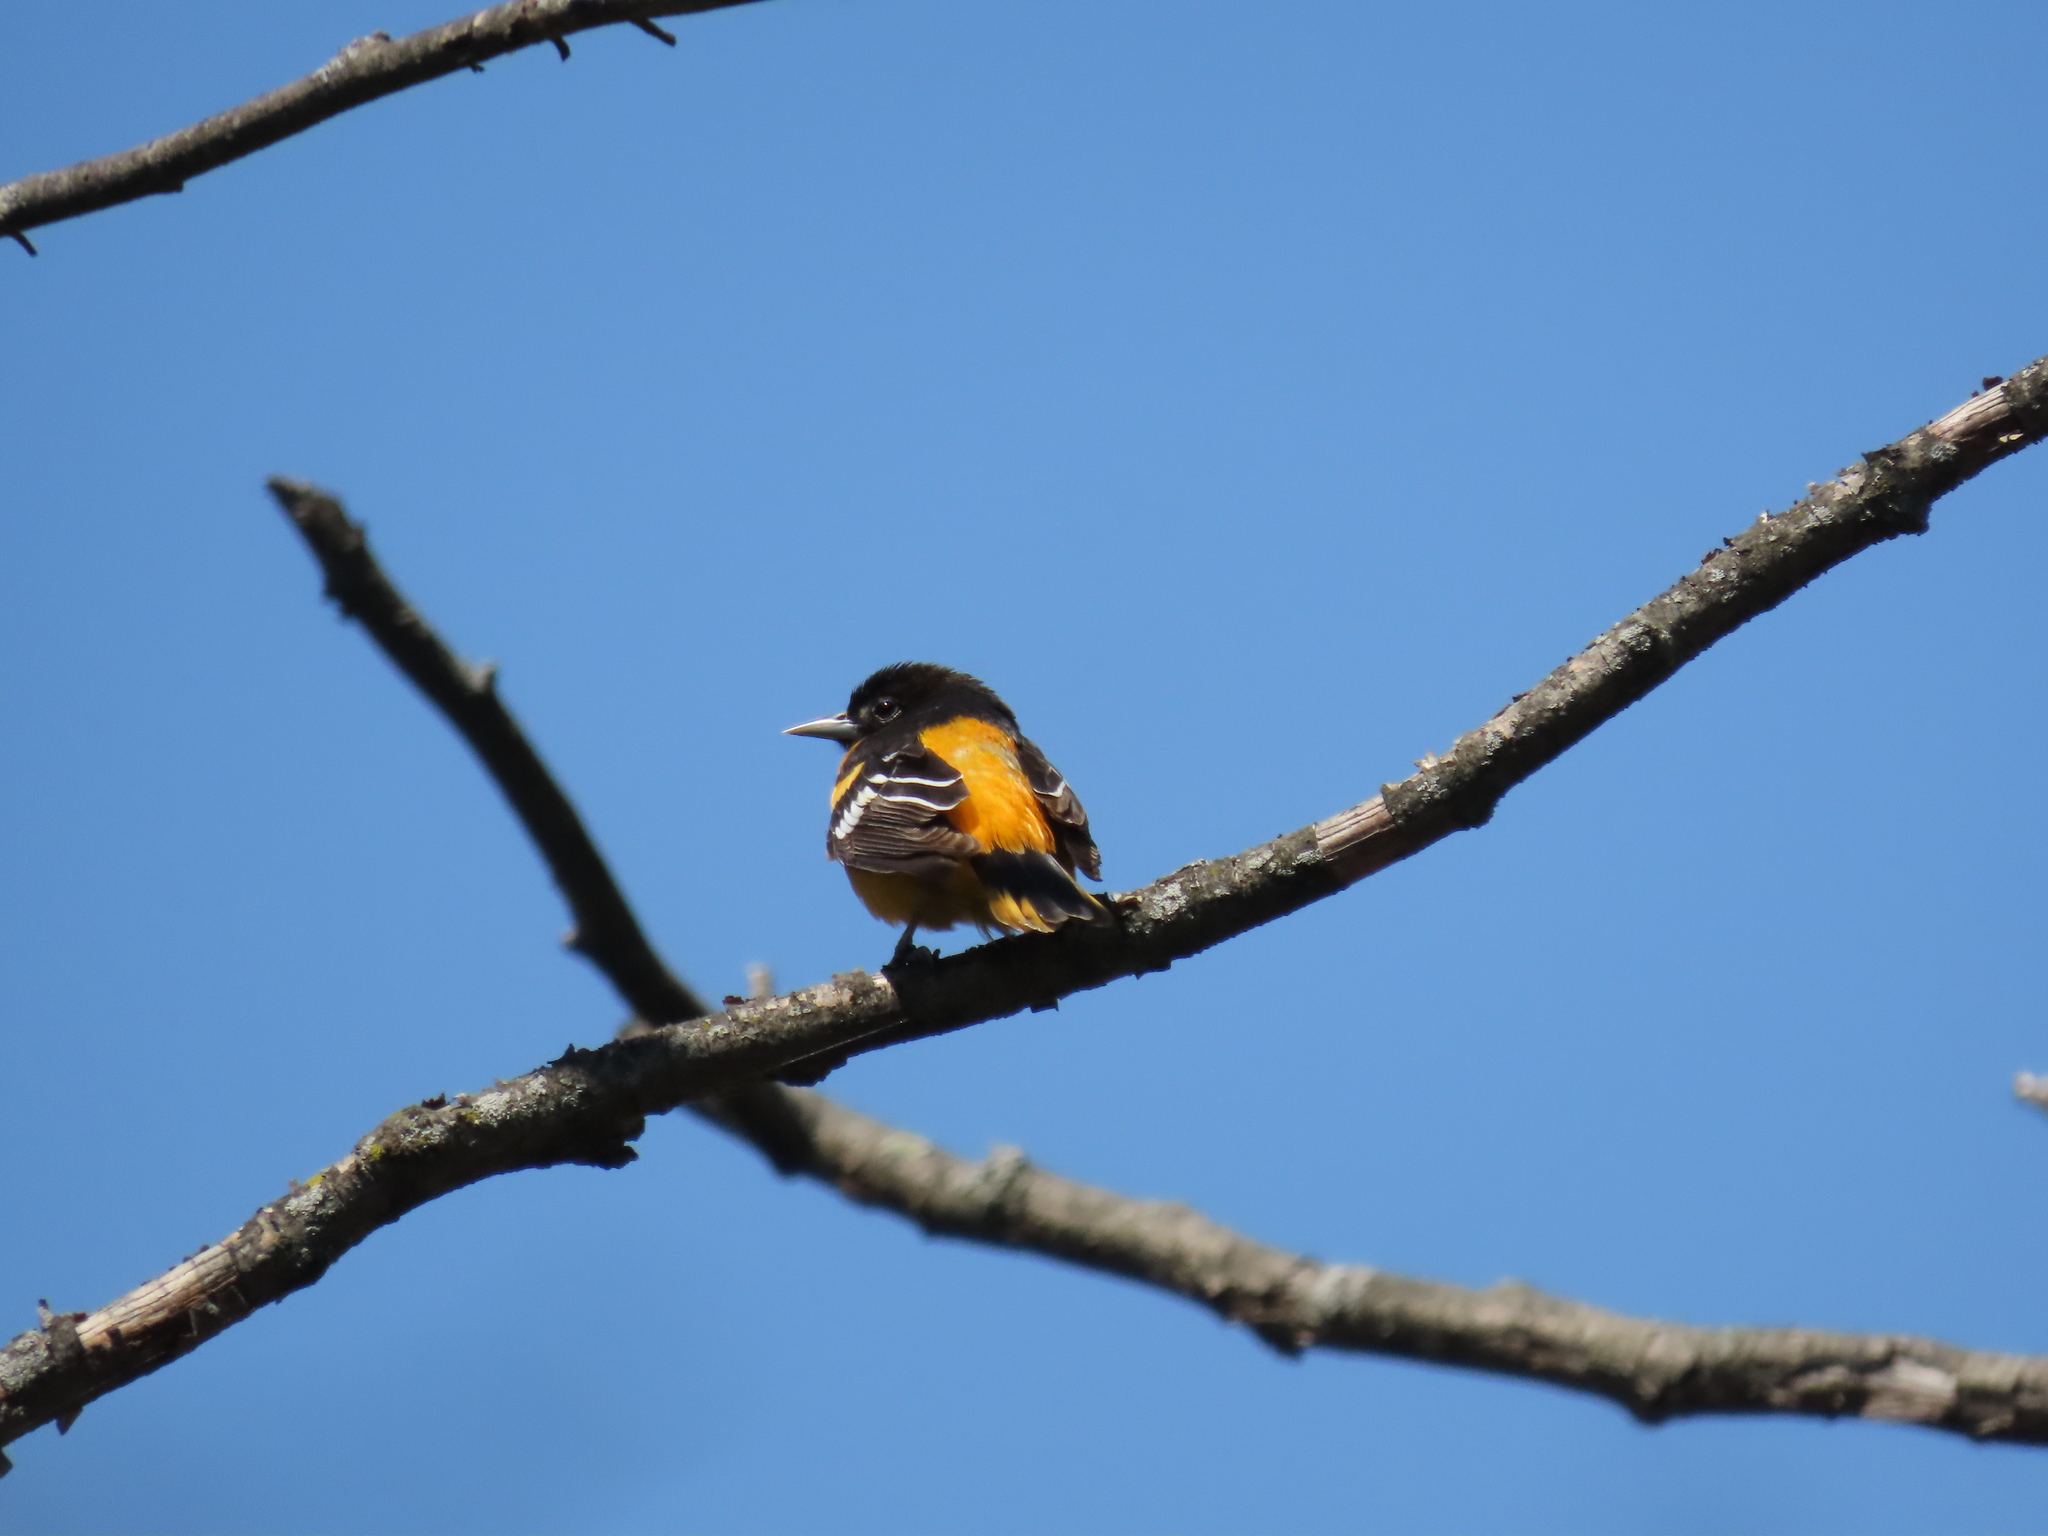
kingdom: Animalia
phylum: Chordata
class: Aves
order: Passeriformes
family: Icteridae
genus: Icterus
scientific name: Icterus galbula
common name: Baltimore oriole
